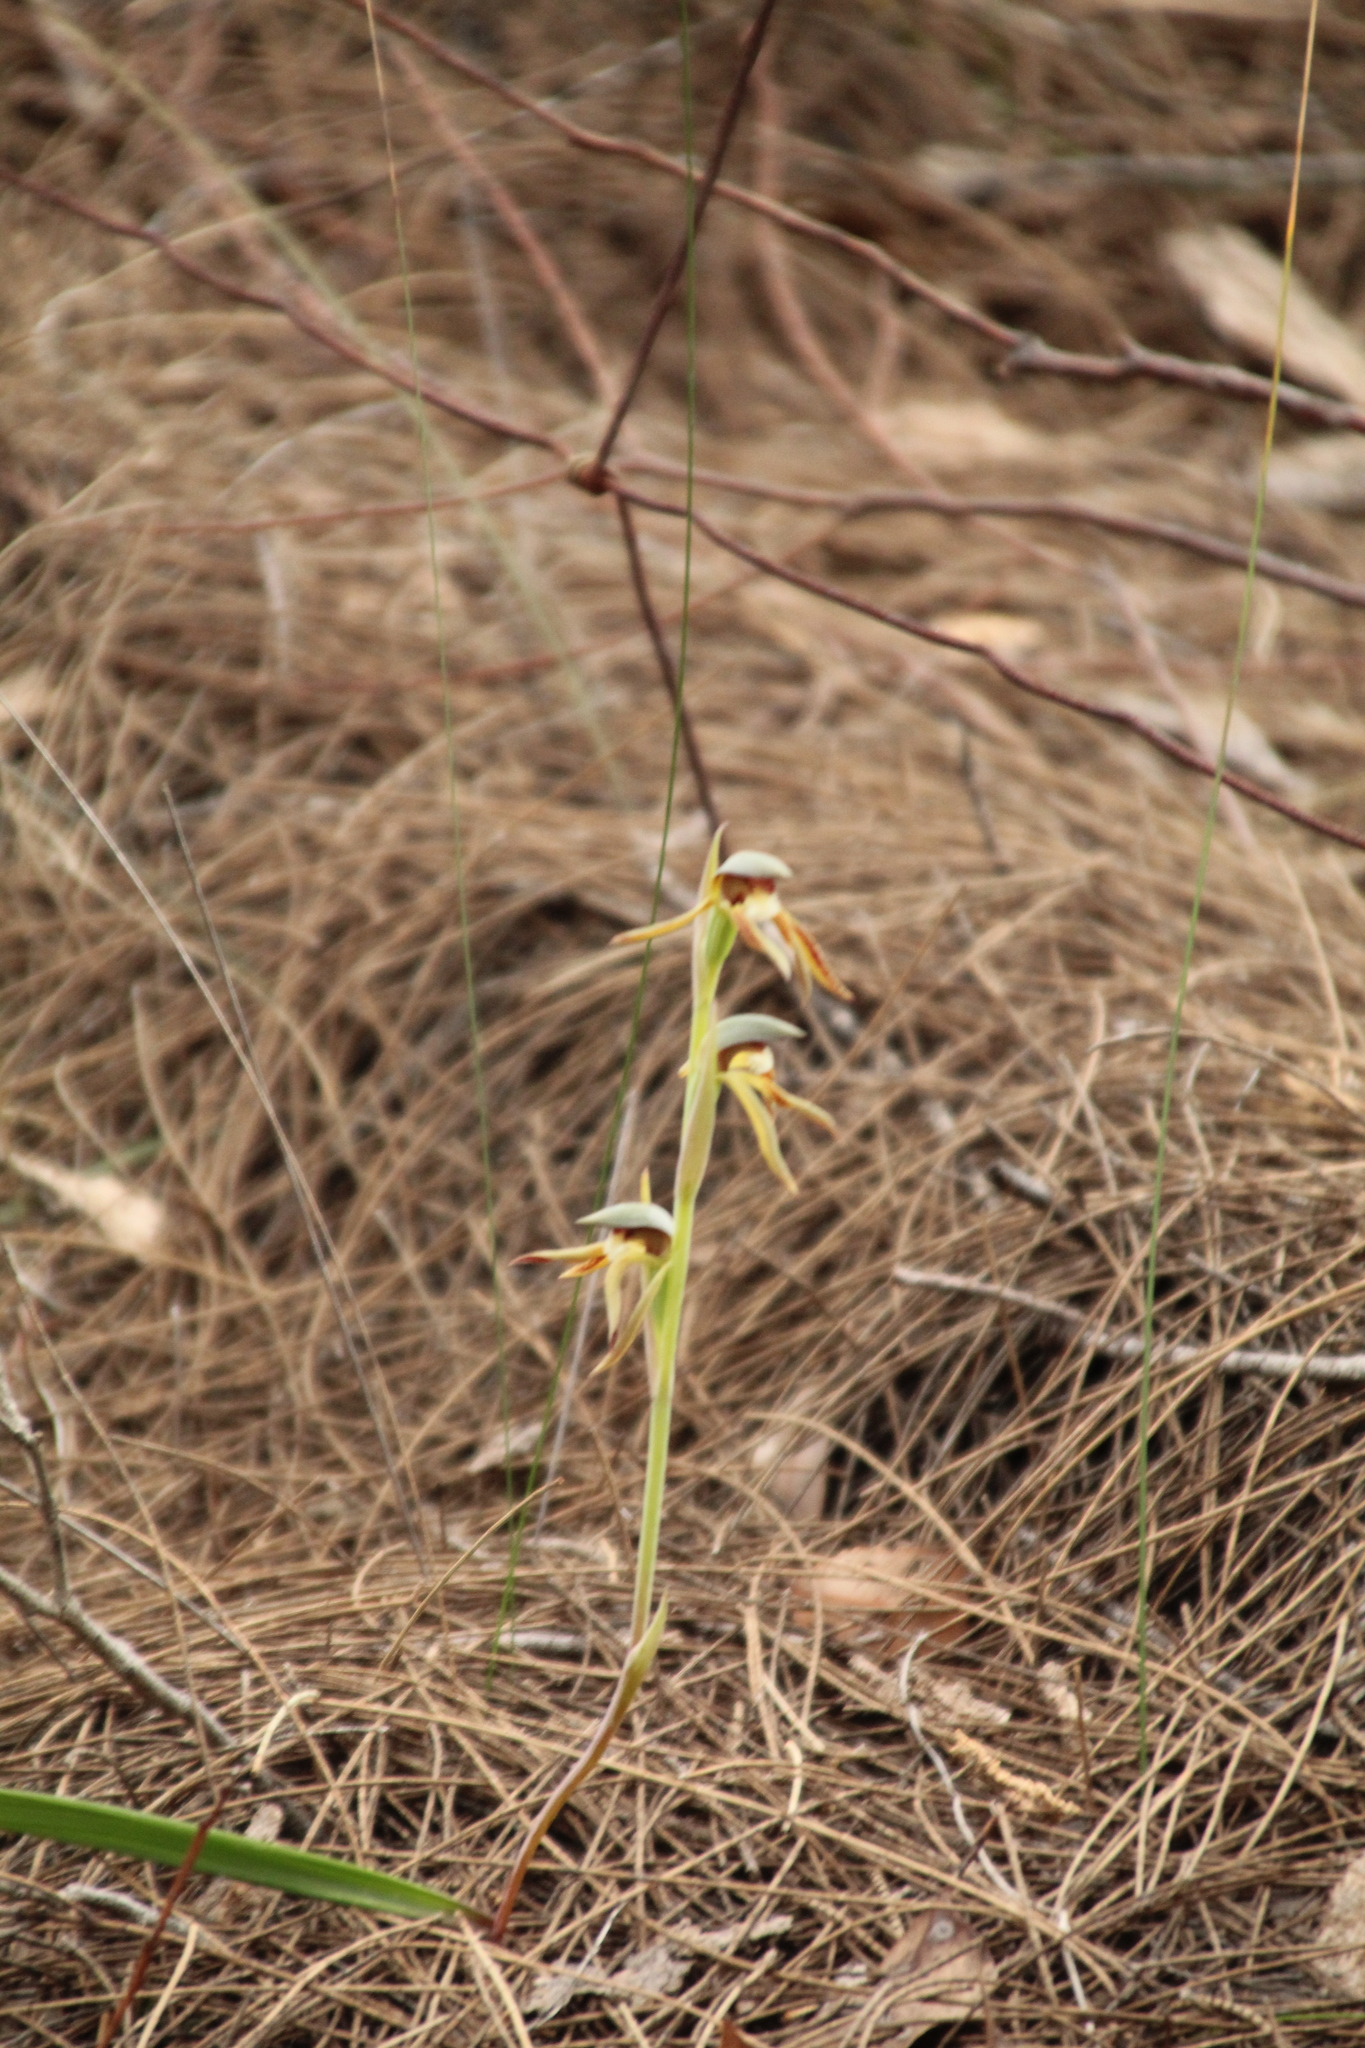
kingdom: Plantae
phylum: Tracheophyta
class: Liliopsida
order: Asparagales
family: Orchidaceae
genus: Lyperanthus
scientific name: Lyperanthus serratus
